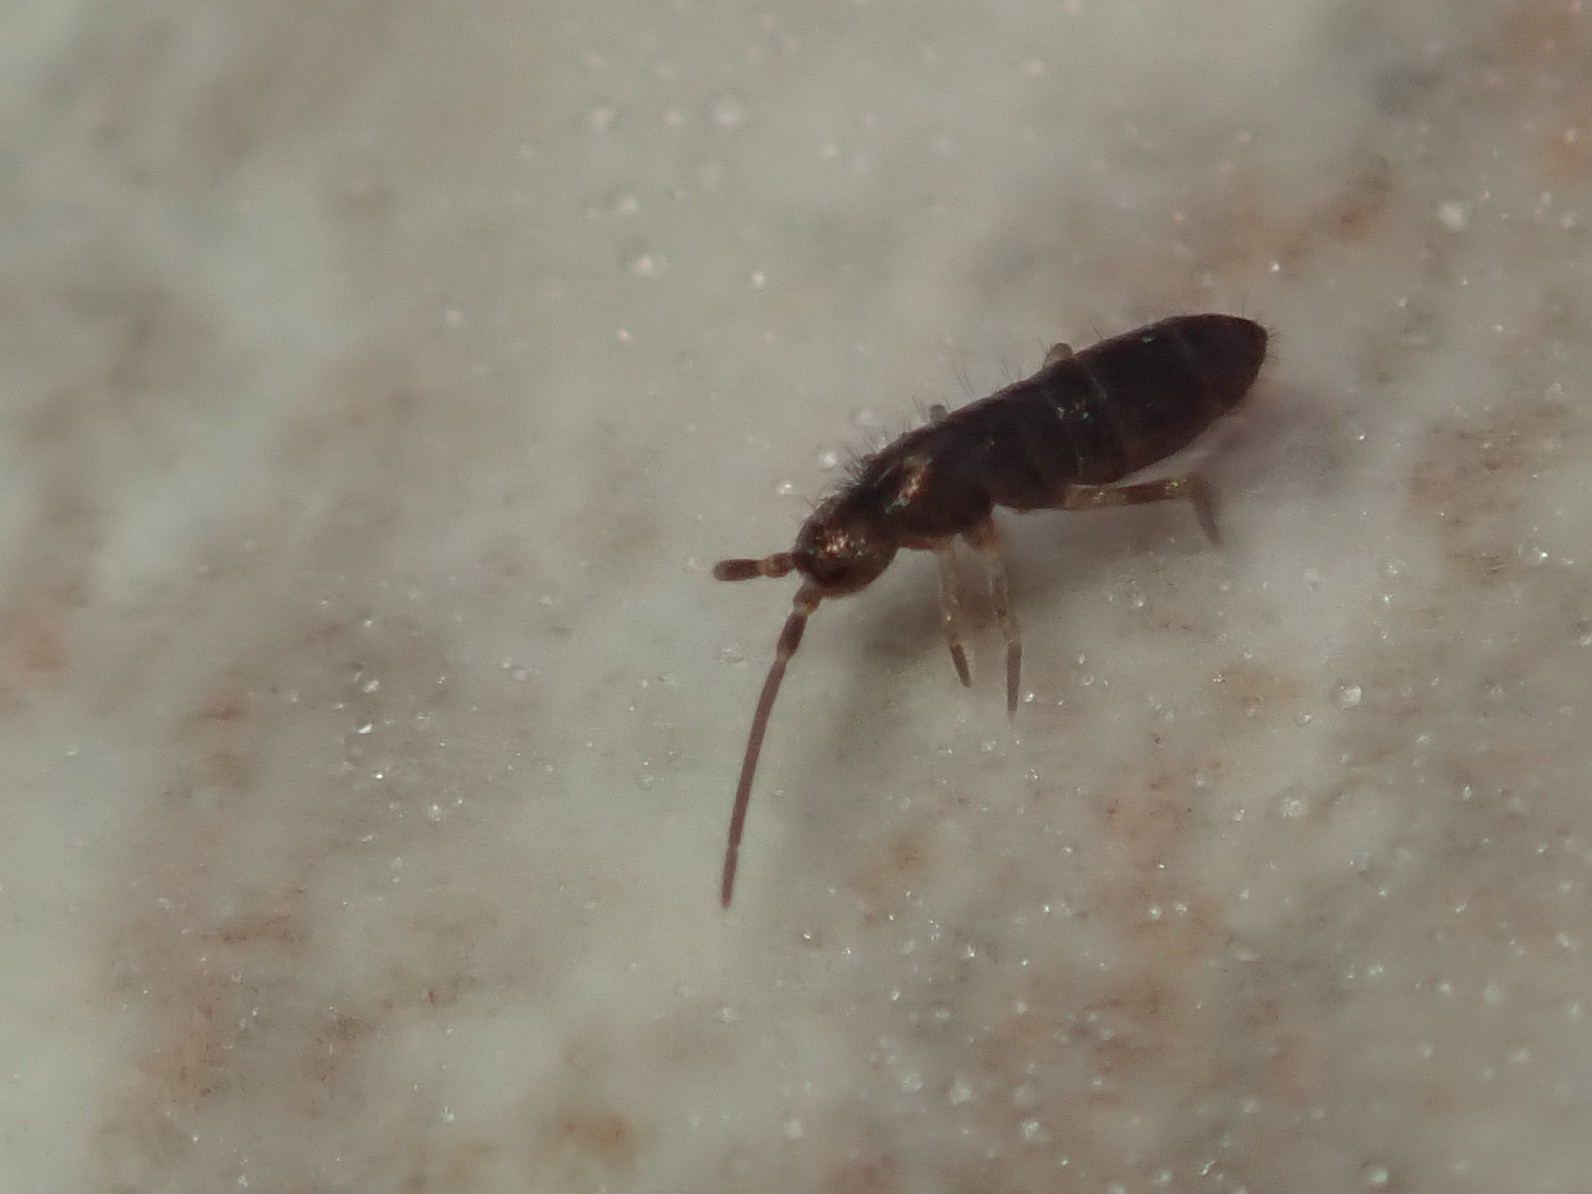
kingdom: Animalia
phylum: Arthropoda
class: Collembola
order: Entomobryomorpha
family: Tomoceridae
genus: Tomocerus
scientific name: Tomocerus minor
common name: Springtail
